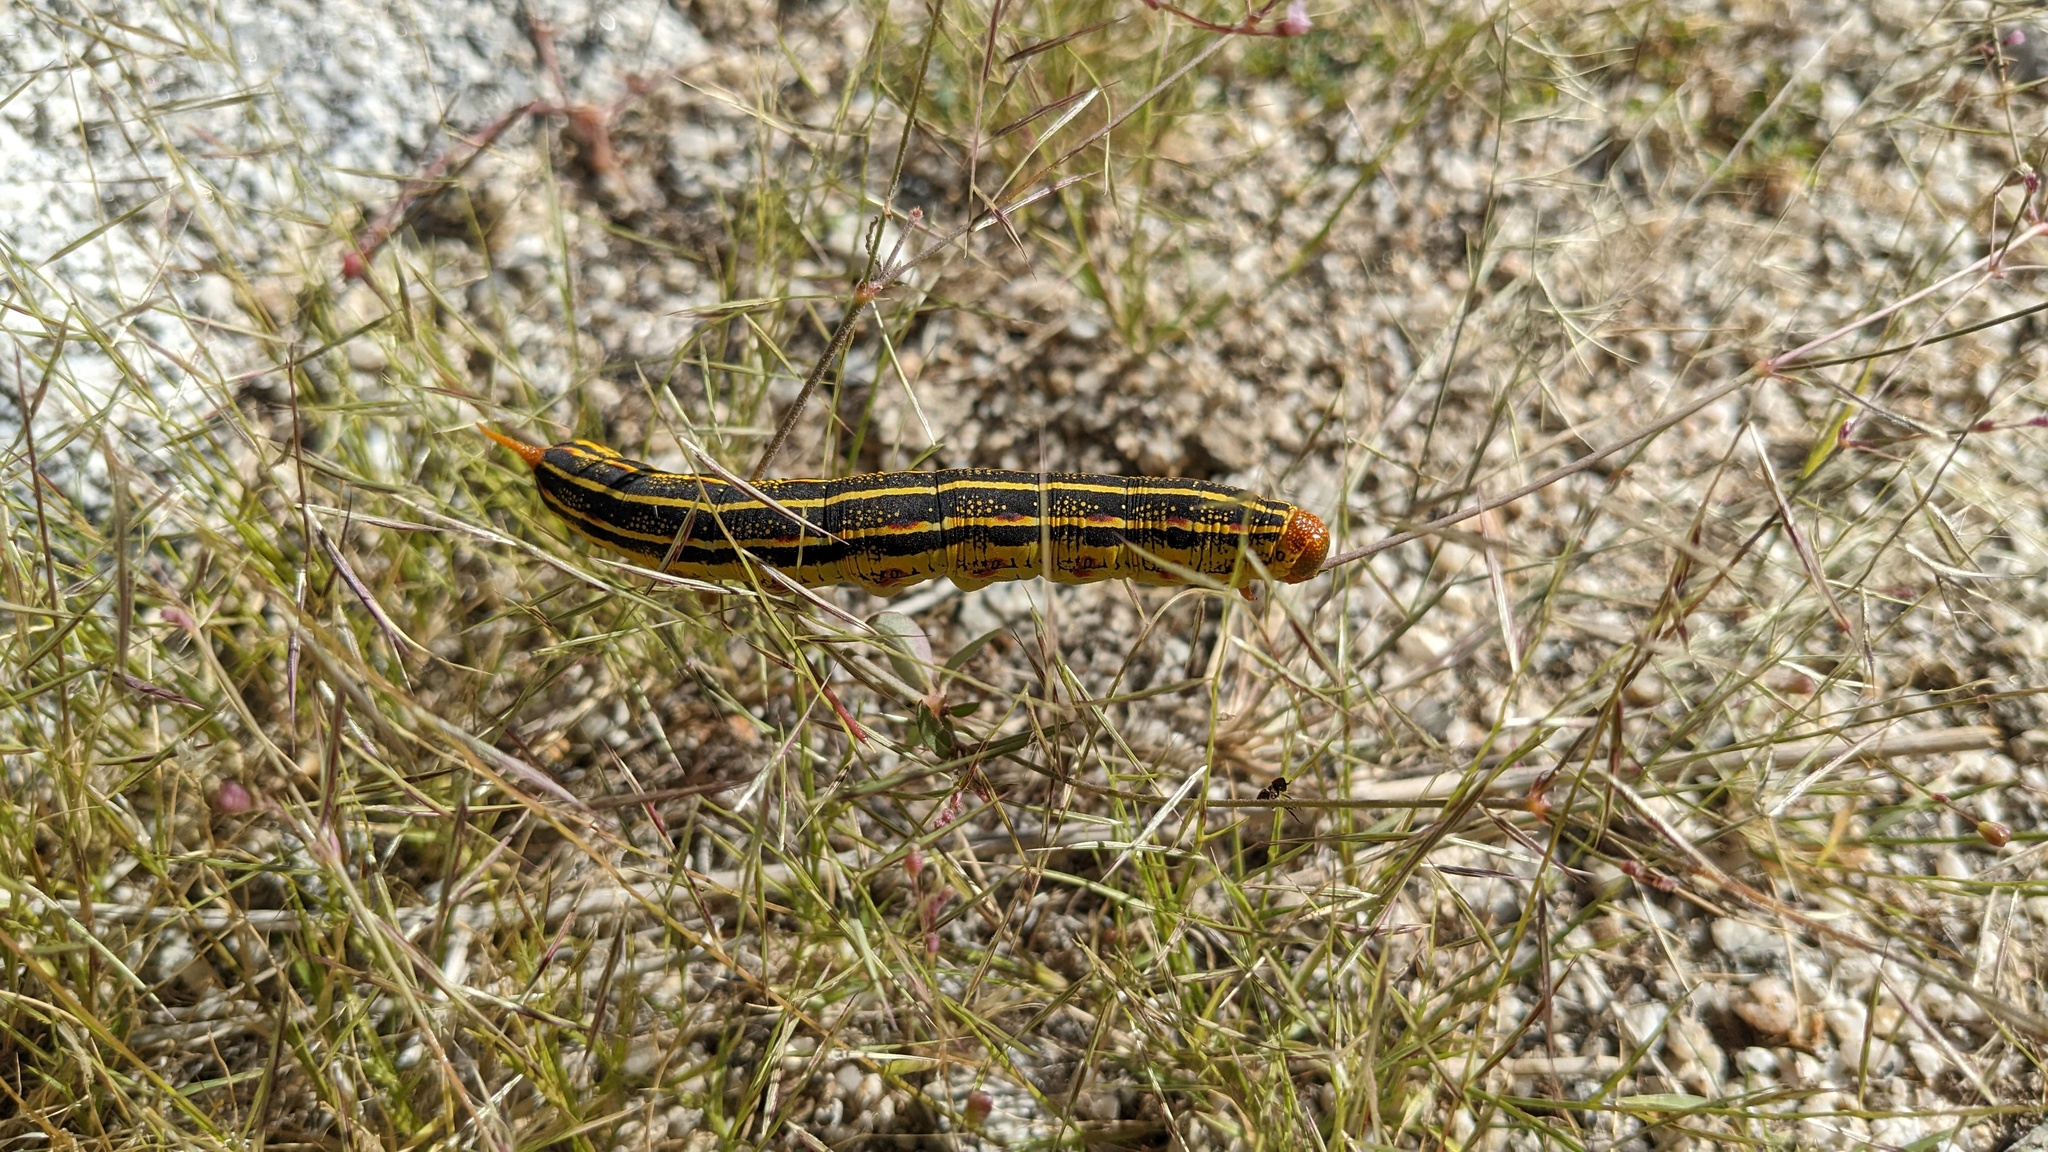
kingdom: Animalia
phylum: Arthropoda
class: Insecta
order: Lepidoptera
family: Sphingidae
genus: Hyles
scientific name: Hyles lineata
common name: White-lined sphinx
